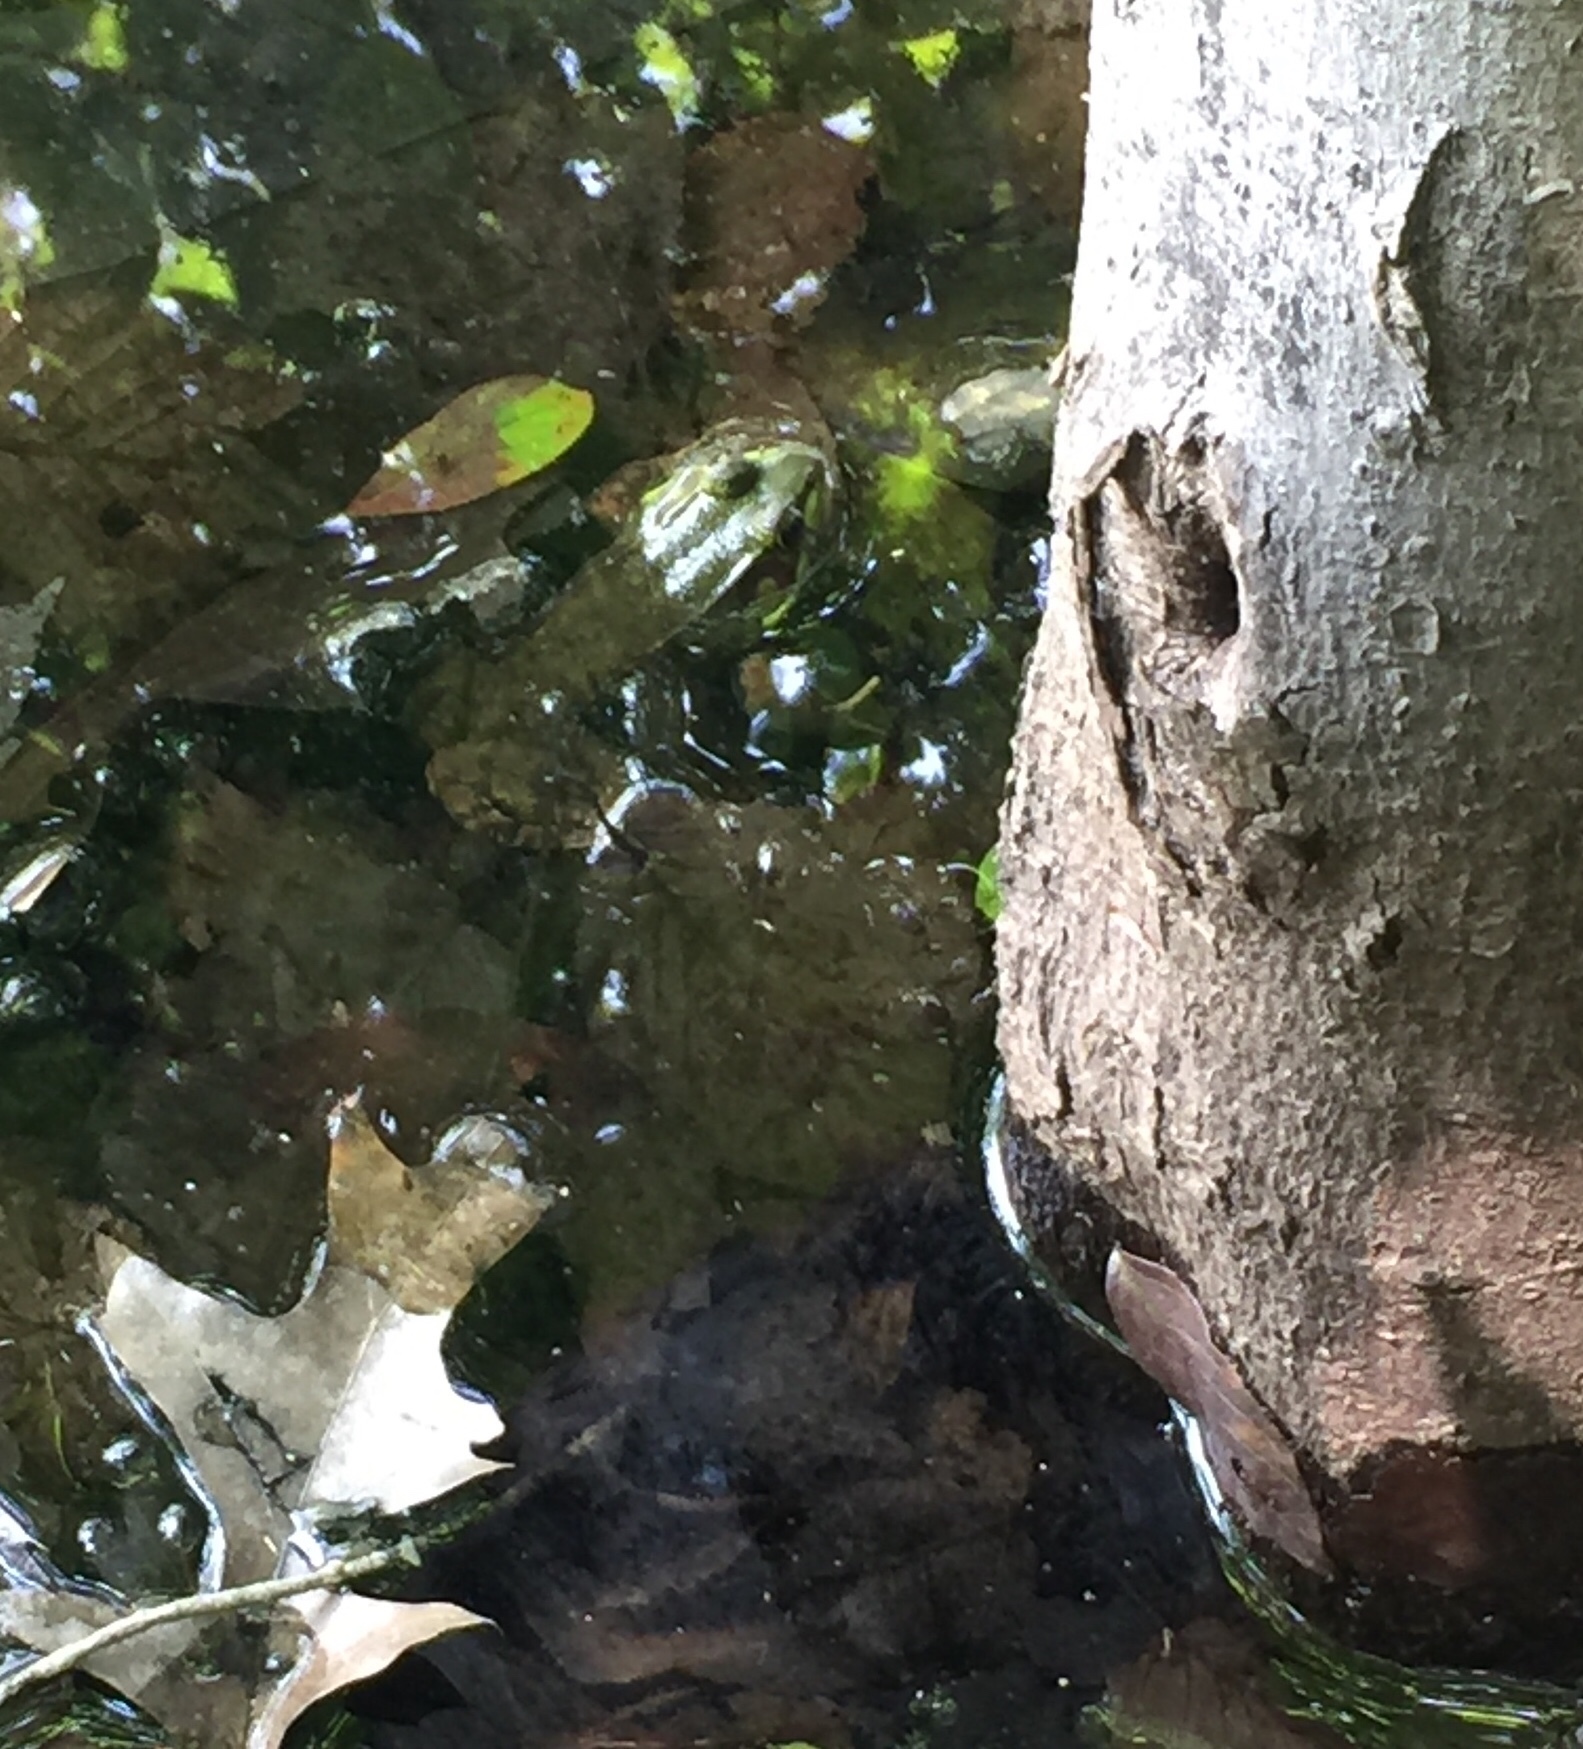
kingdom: Animalia
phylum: Chordata
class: Amphibia
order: Anura
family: Ranidae
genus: Lithobates
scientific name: Lithobates clamitans
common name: Green frog
